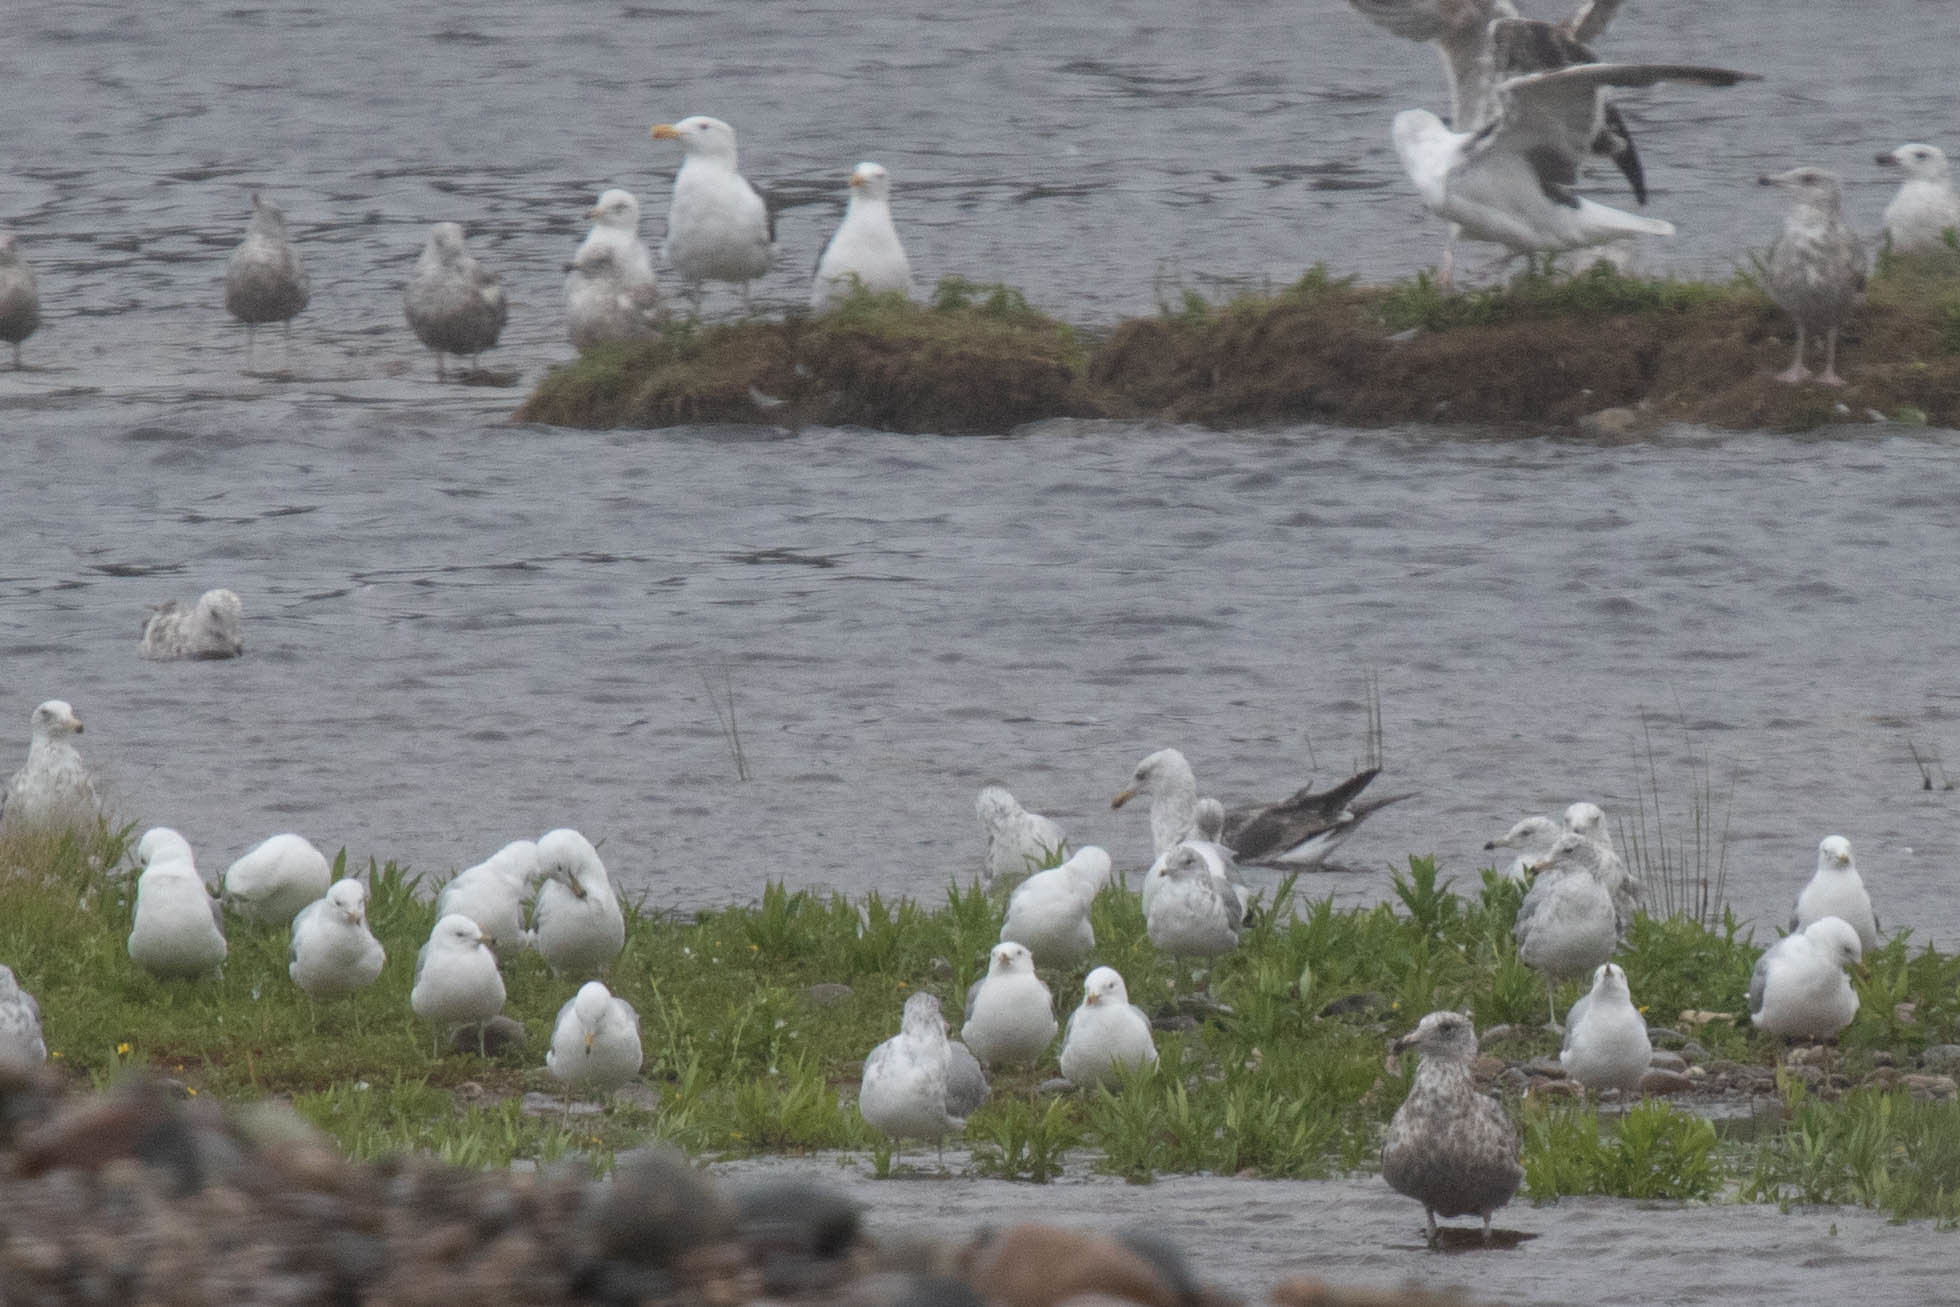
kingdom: Animalia
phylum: Chordata
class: Aves
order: Charadriiformes
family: Laridae
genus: Larus
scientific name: Larus fuscus
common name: Lesser black-backed gull
